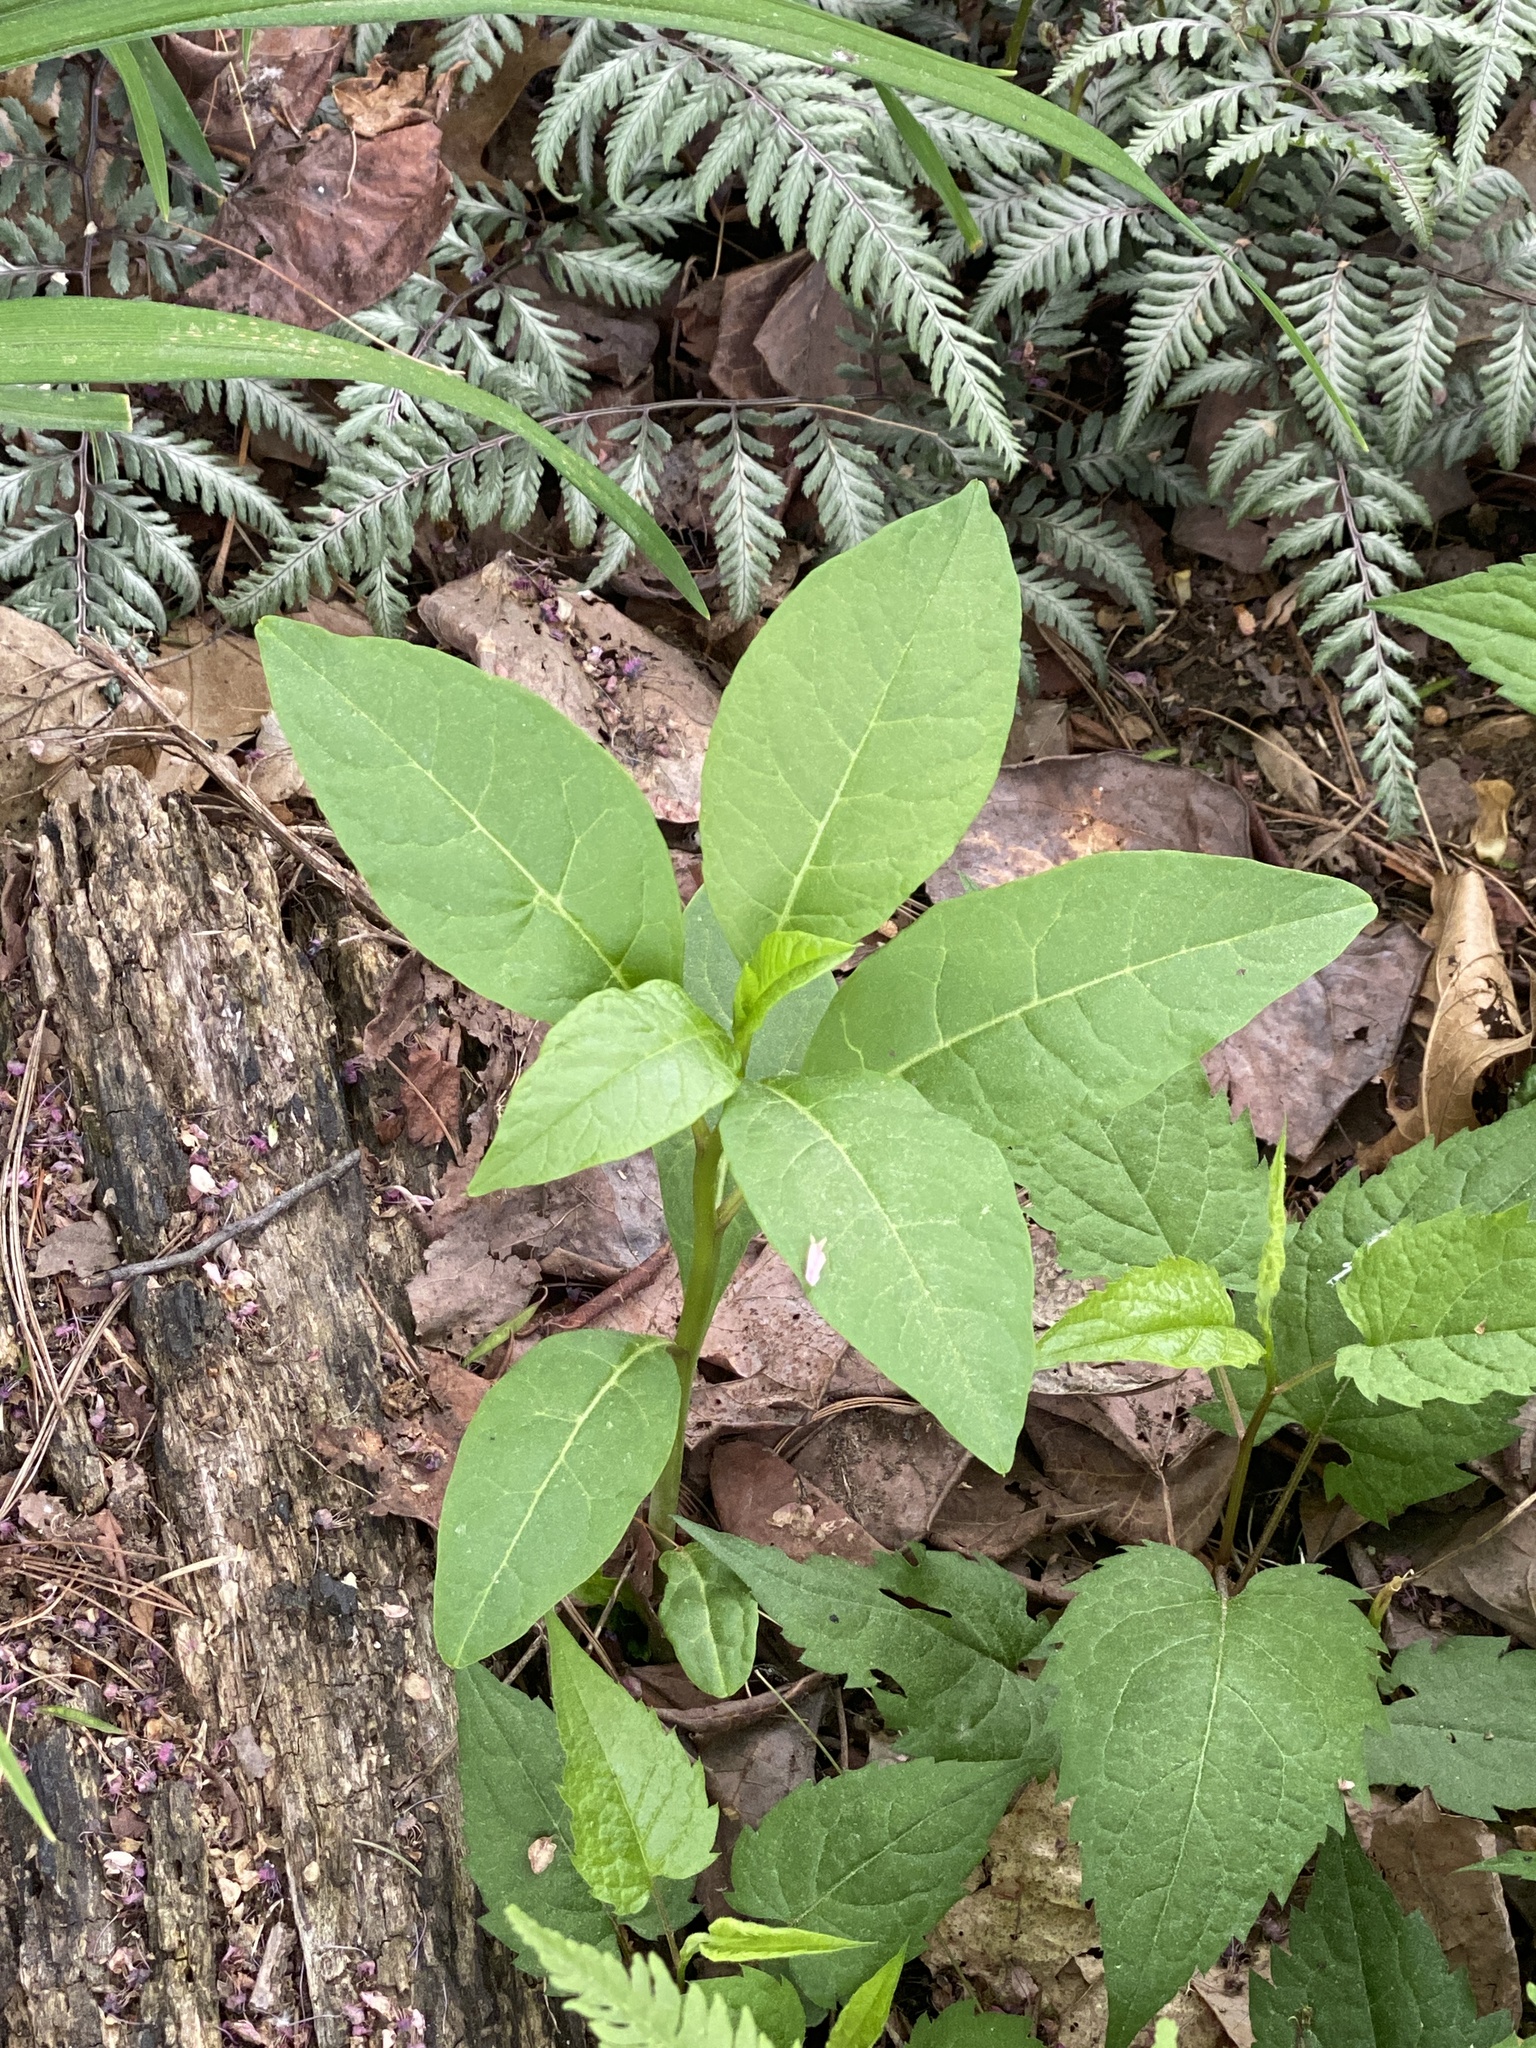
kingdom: Plantae
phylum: Tracheophyta
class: Magnoliopsida
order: Caryophyllales
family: Phytolaccaceae
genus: Phytolacca
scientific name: Phytolacca americana
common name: American pokeweed
